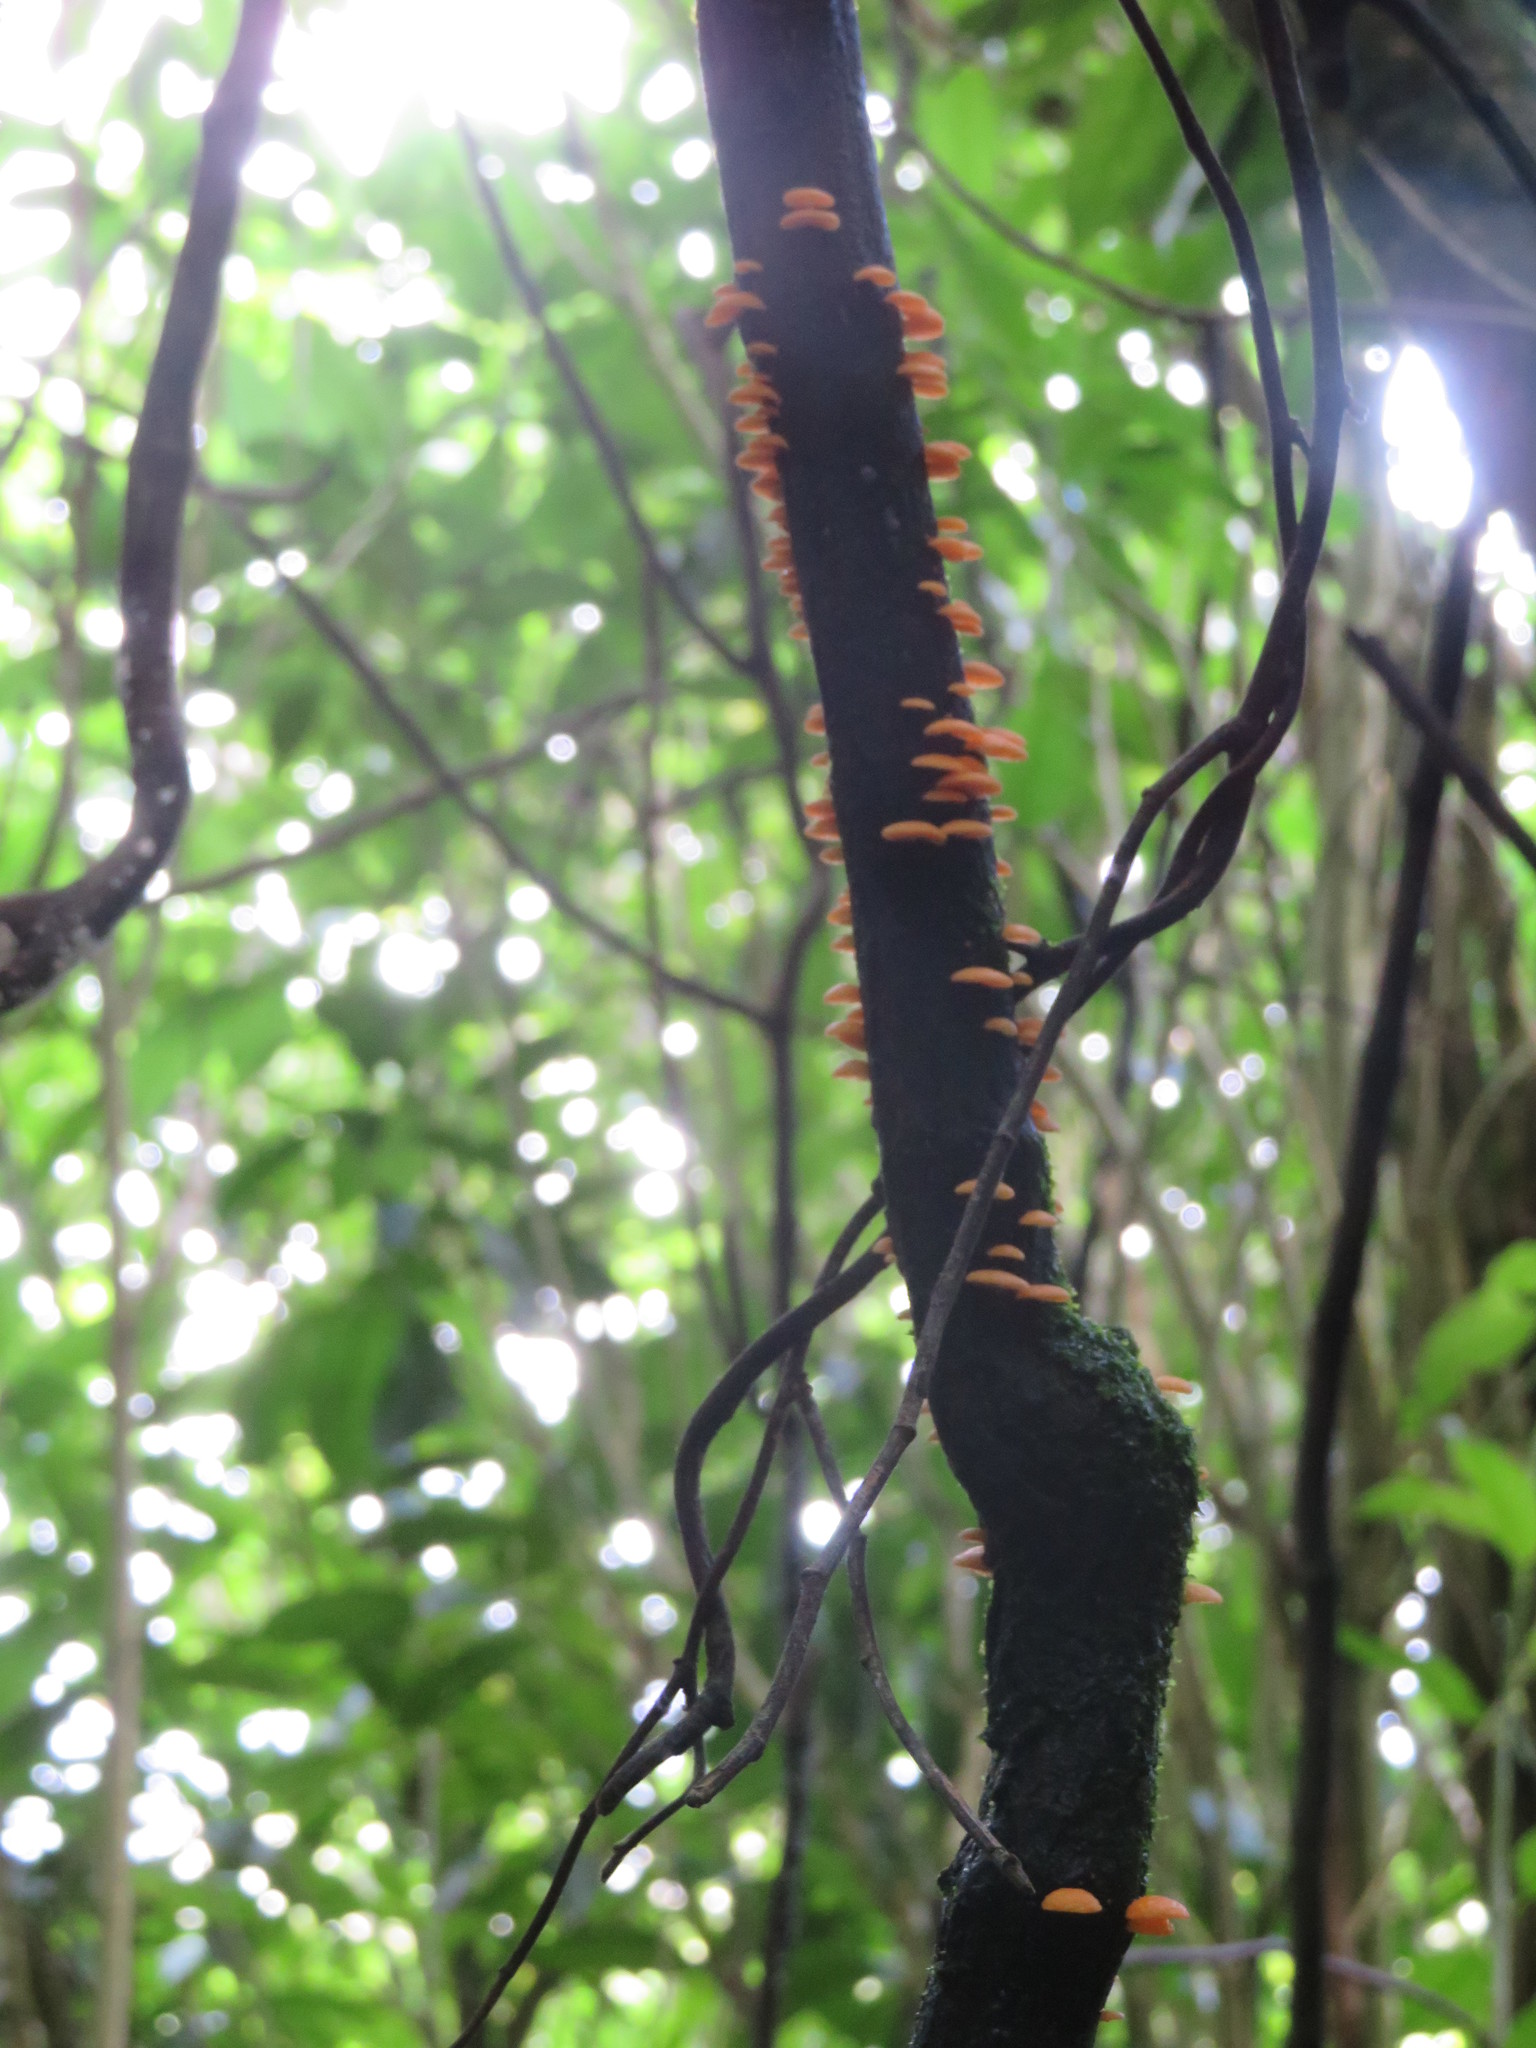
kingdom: Fungi
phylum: Basidiomycota
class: Agaricomycetes
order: Agaricales
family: Mycenaceae
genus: Favolaschia
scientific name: Favolaschia claudopus
